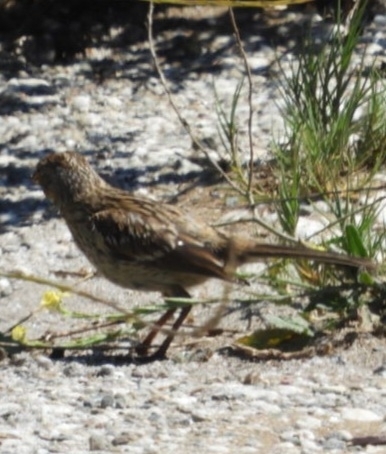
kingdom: Animalia
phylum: Chordata
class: Aves
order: Passeriformes
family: Passerellidae
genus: Zonotrichia
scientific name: Zonotrichia leucophrys
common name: White-crowned sparrow
